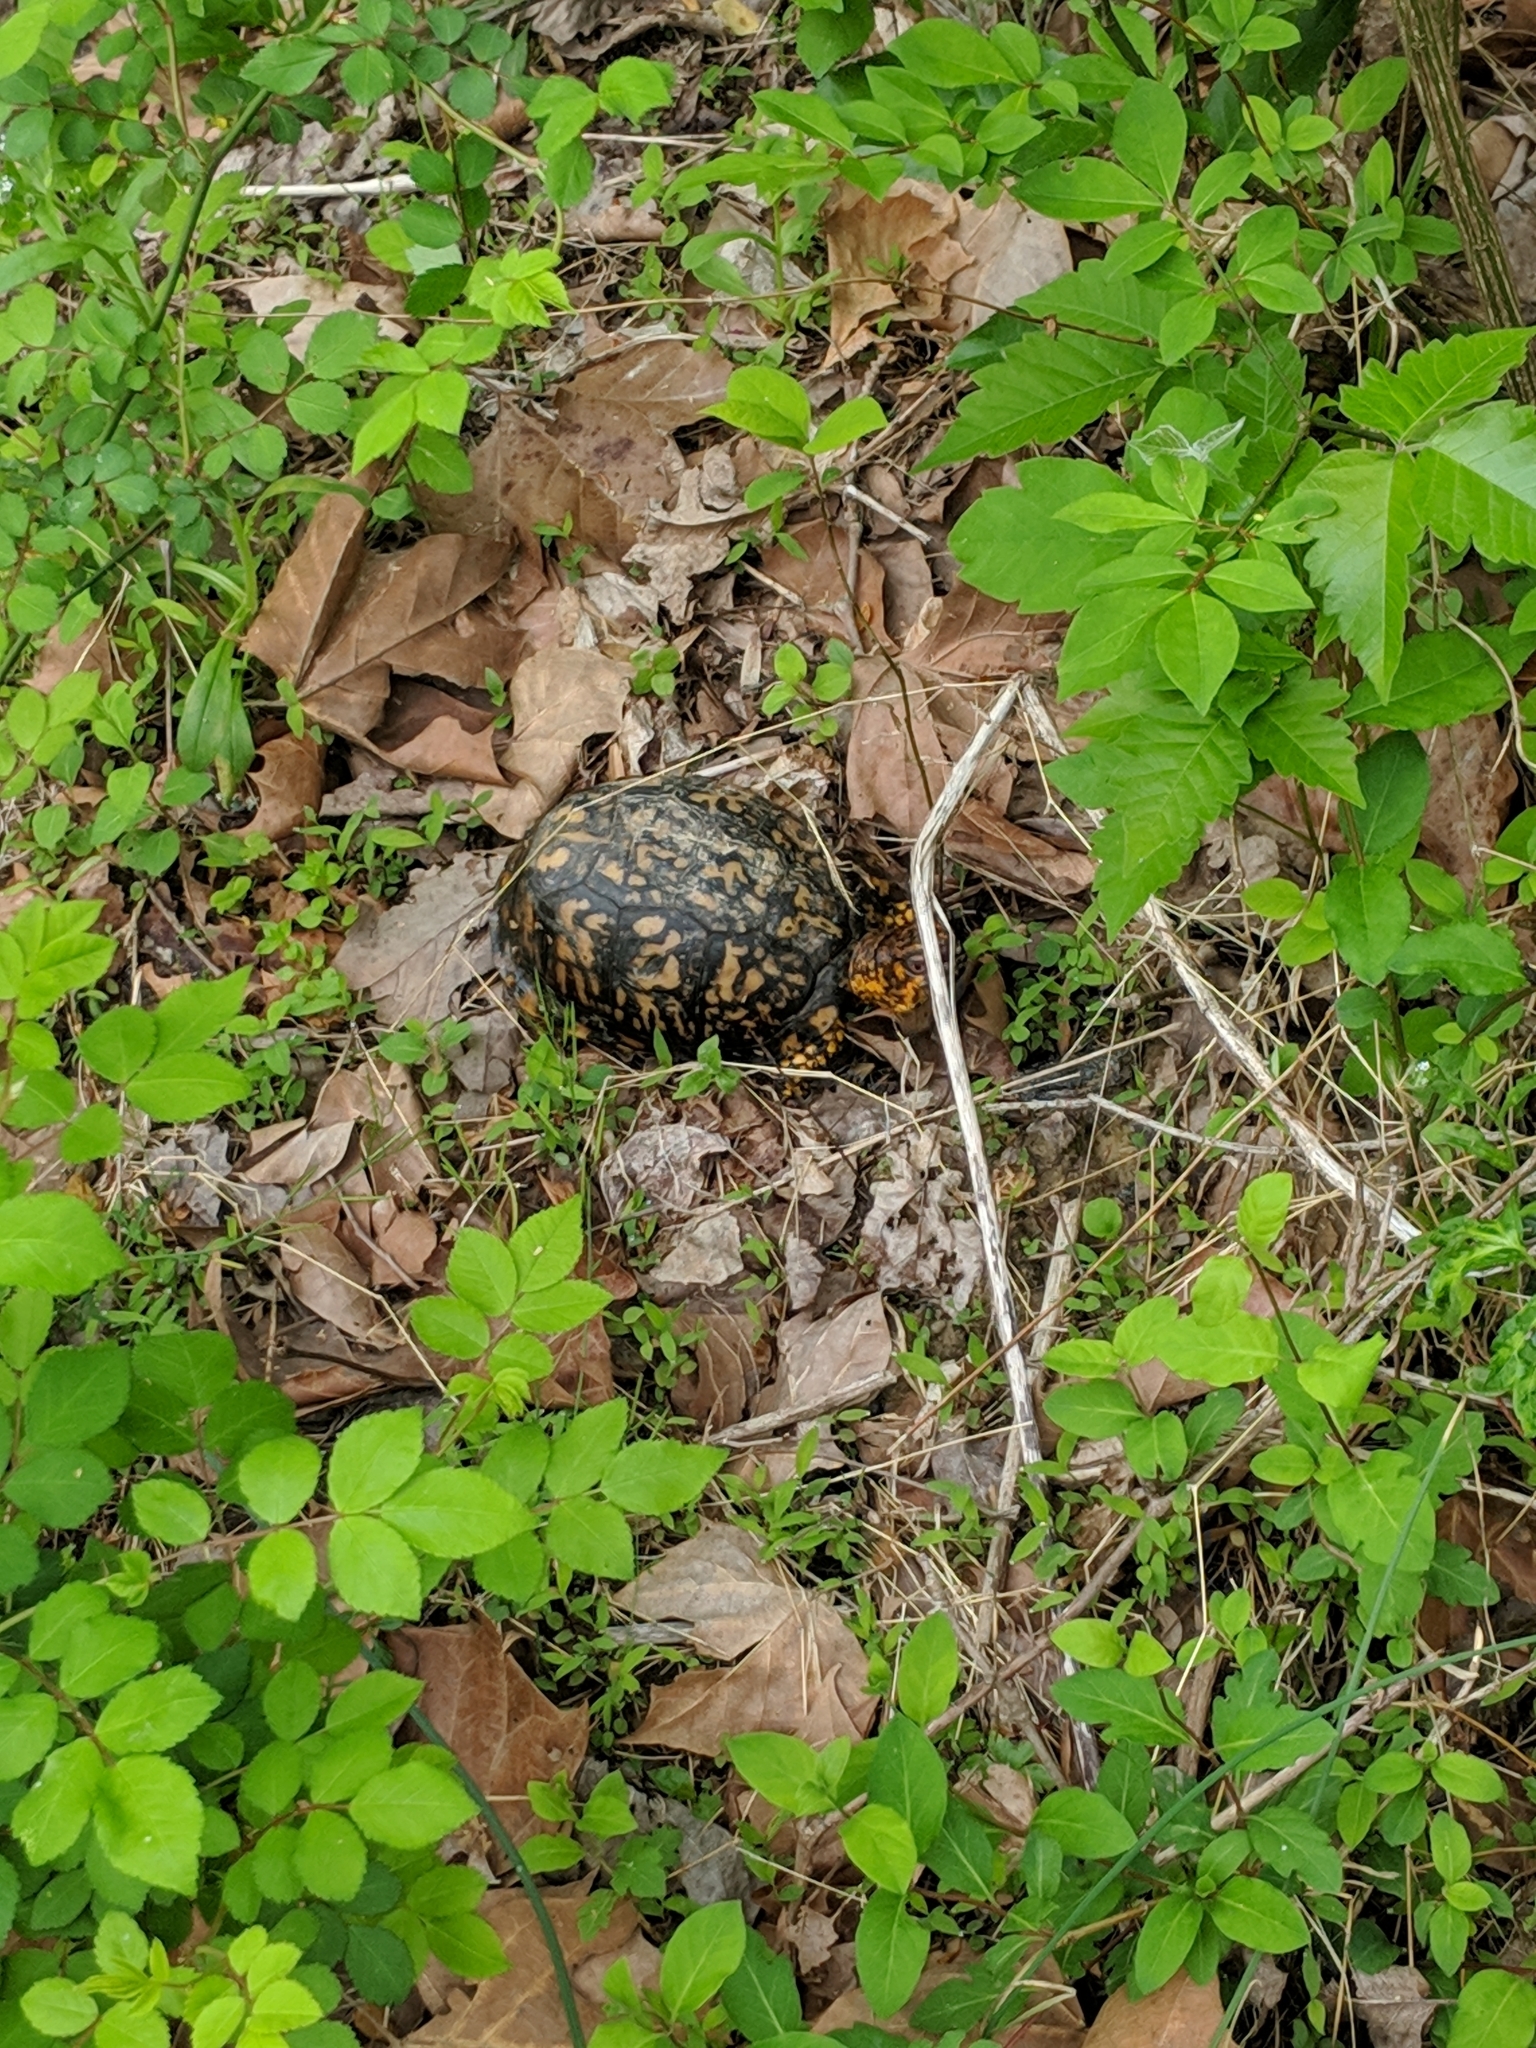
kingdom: Animalia
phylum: Chordata
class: Testudines
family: Emydidae
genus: Terrapene
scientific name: Terrapene carolina
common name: Common box turtle
